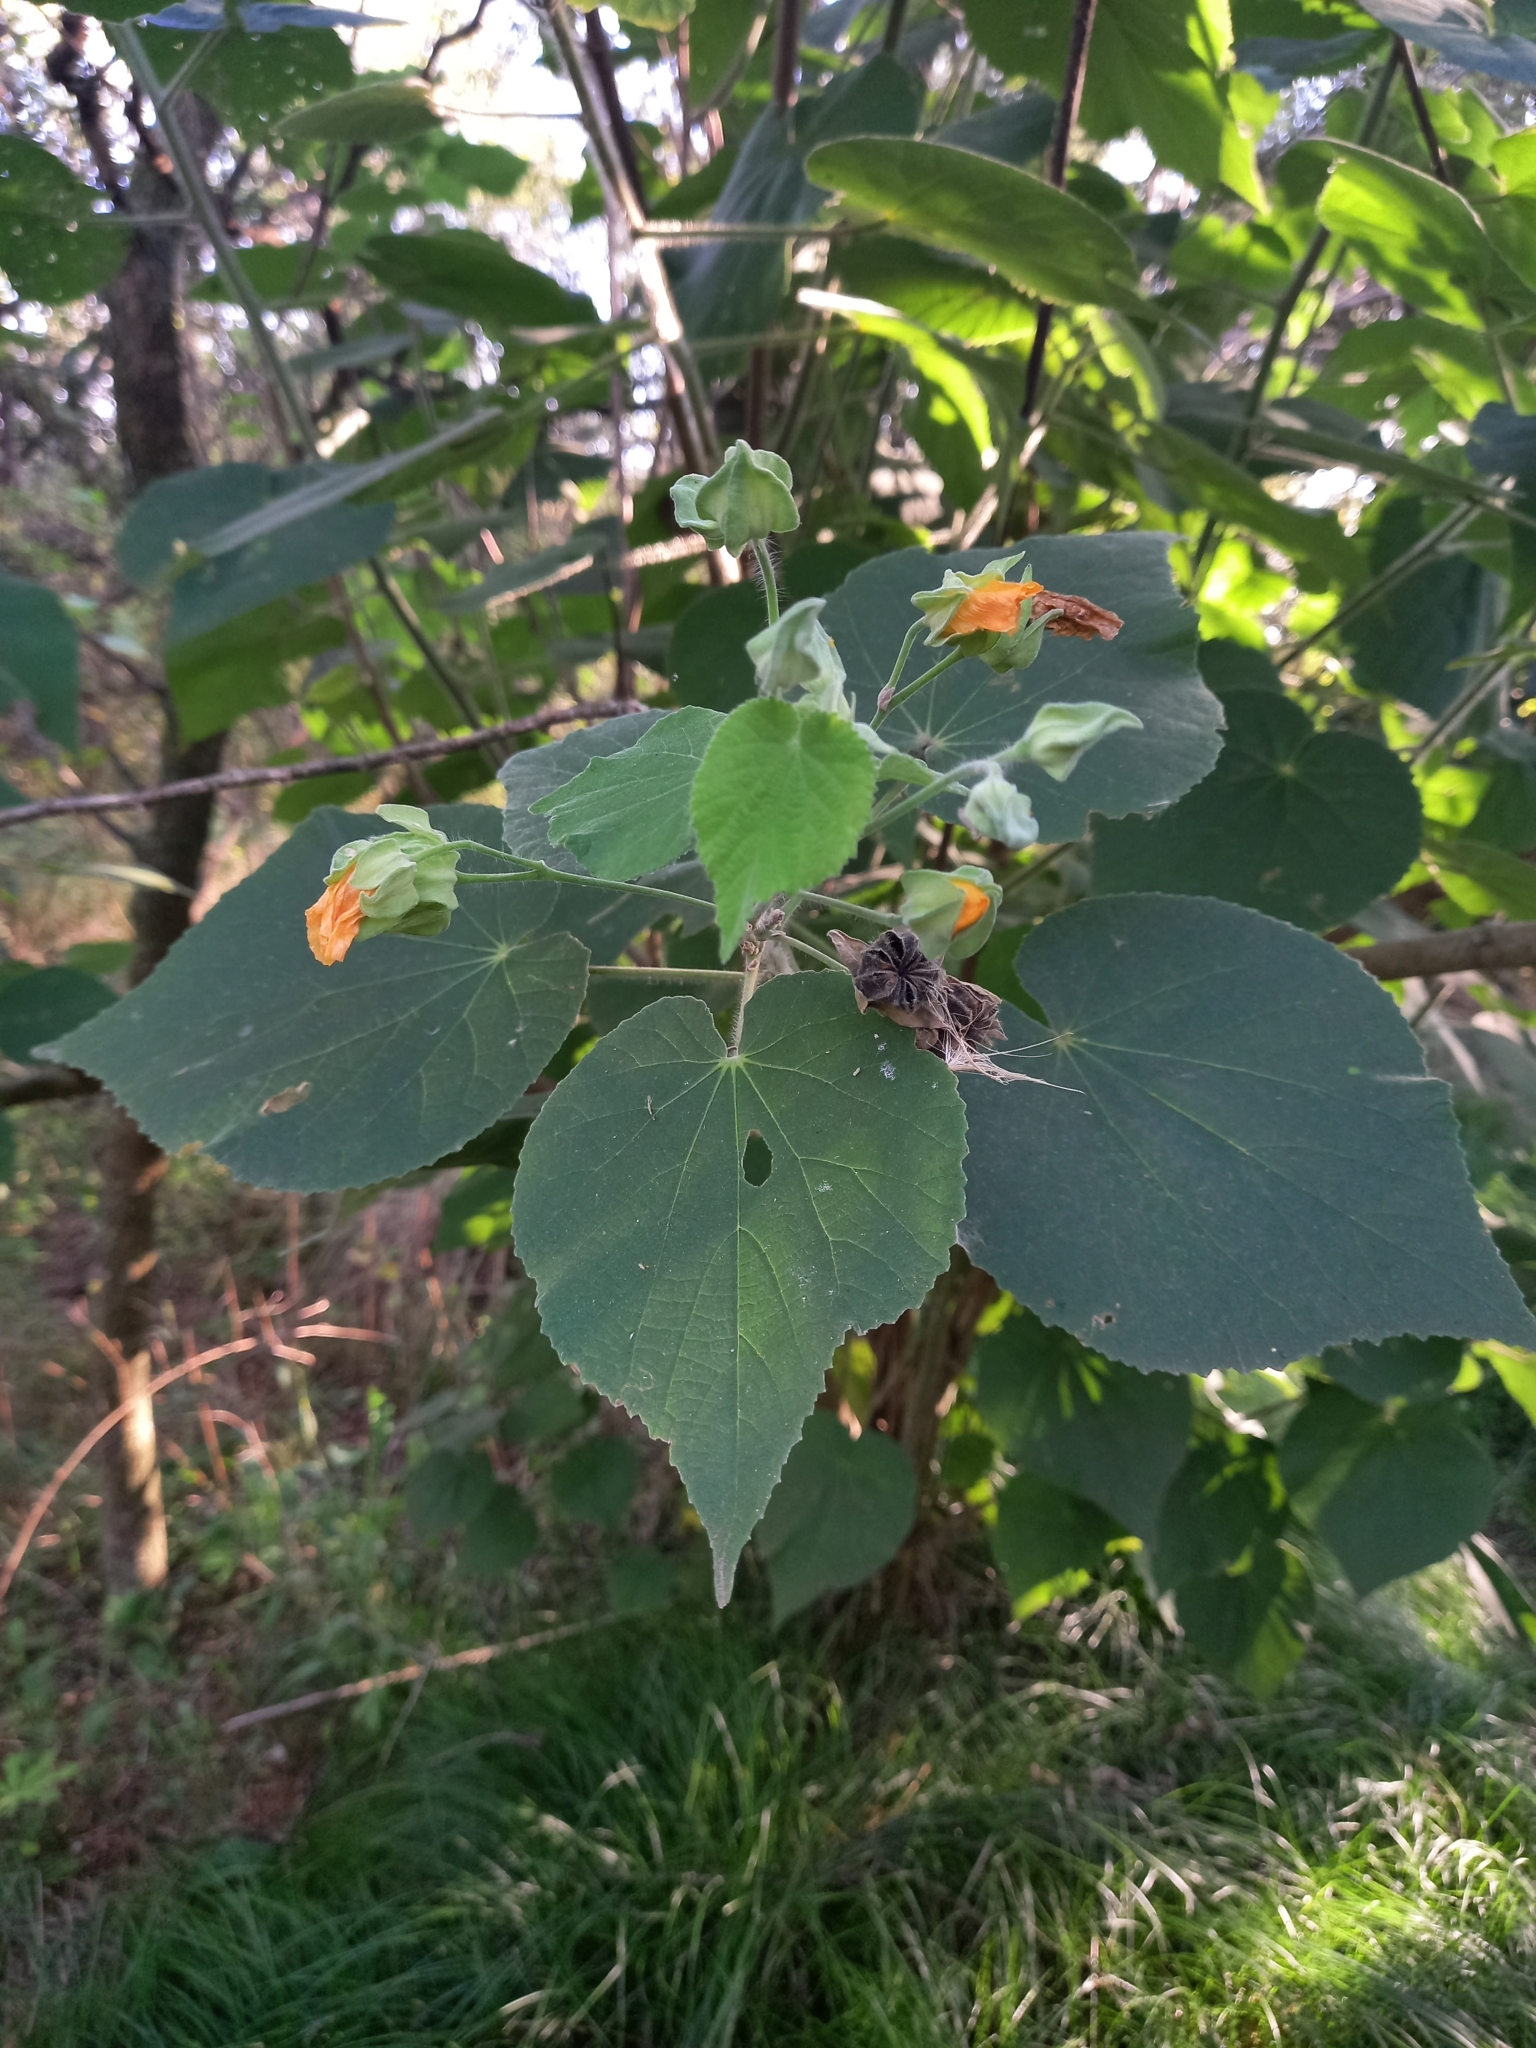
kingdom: Plantae
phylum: Tracheophyta
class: Magnoliopsida
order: Malvales
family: Malvaceae
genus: Abutilon
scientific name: Abutilon grandifolium
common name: Hairy abutilon
